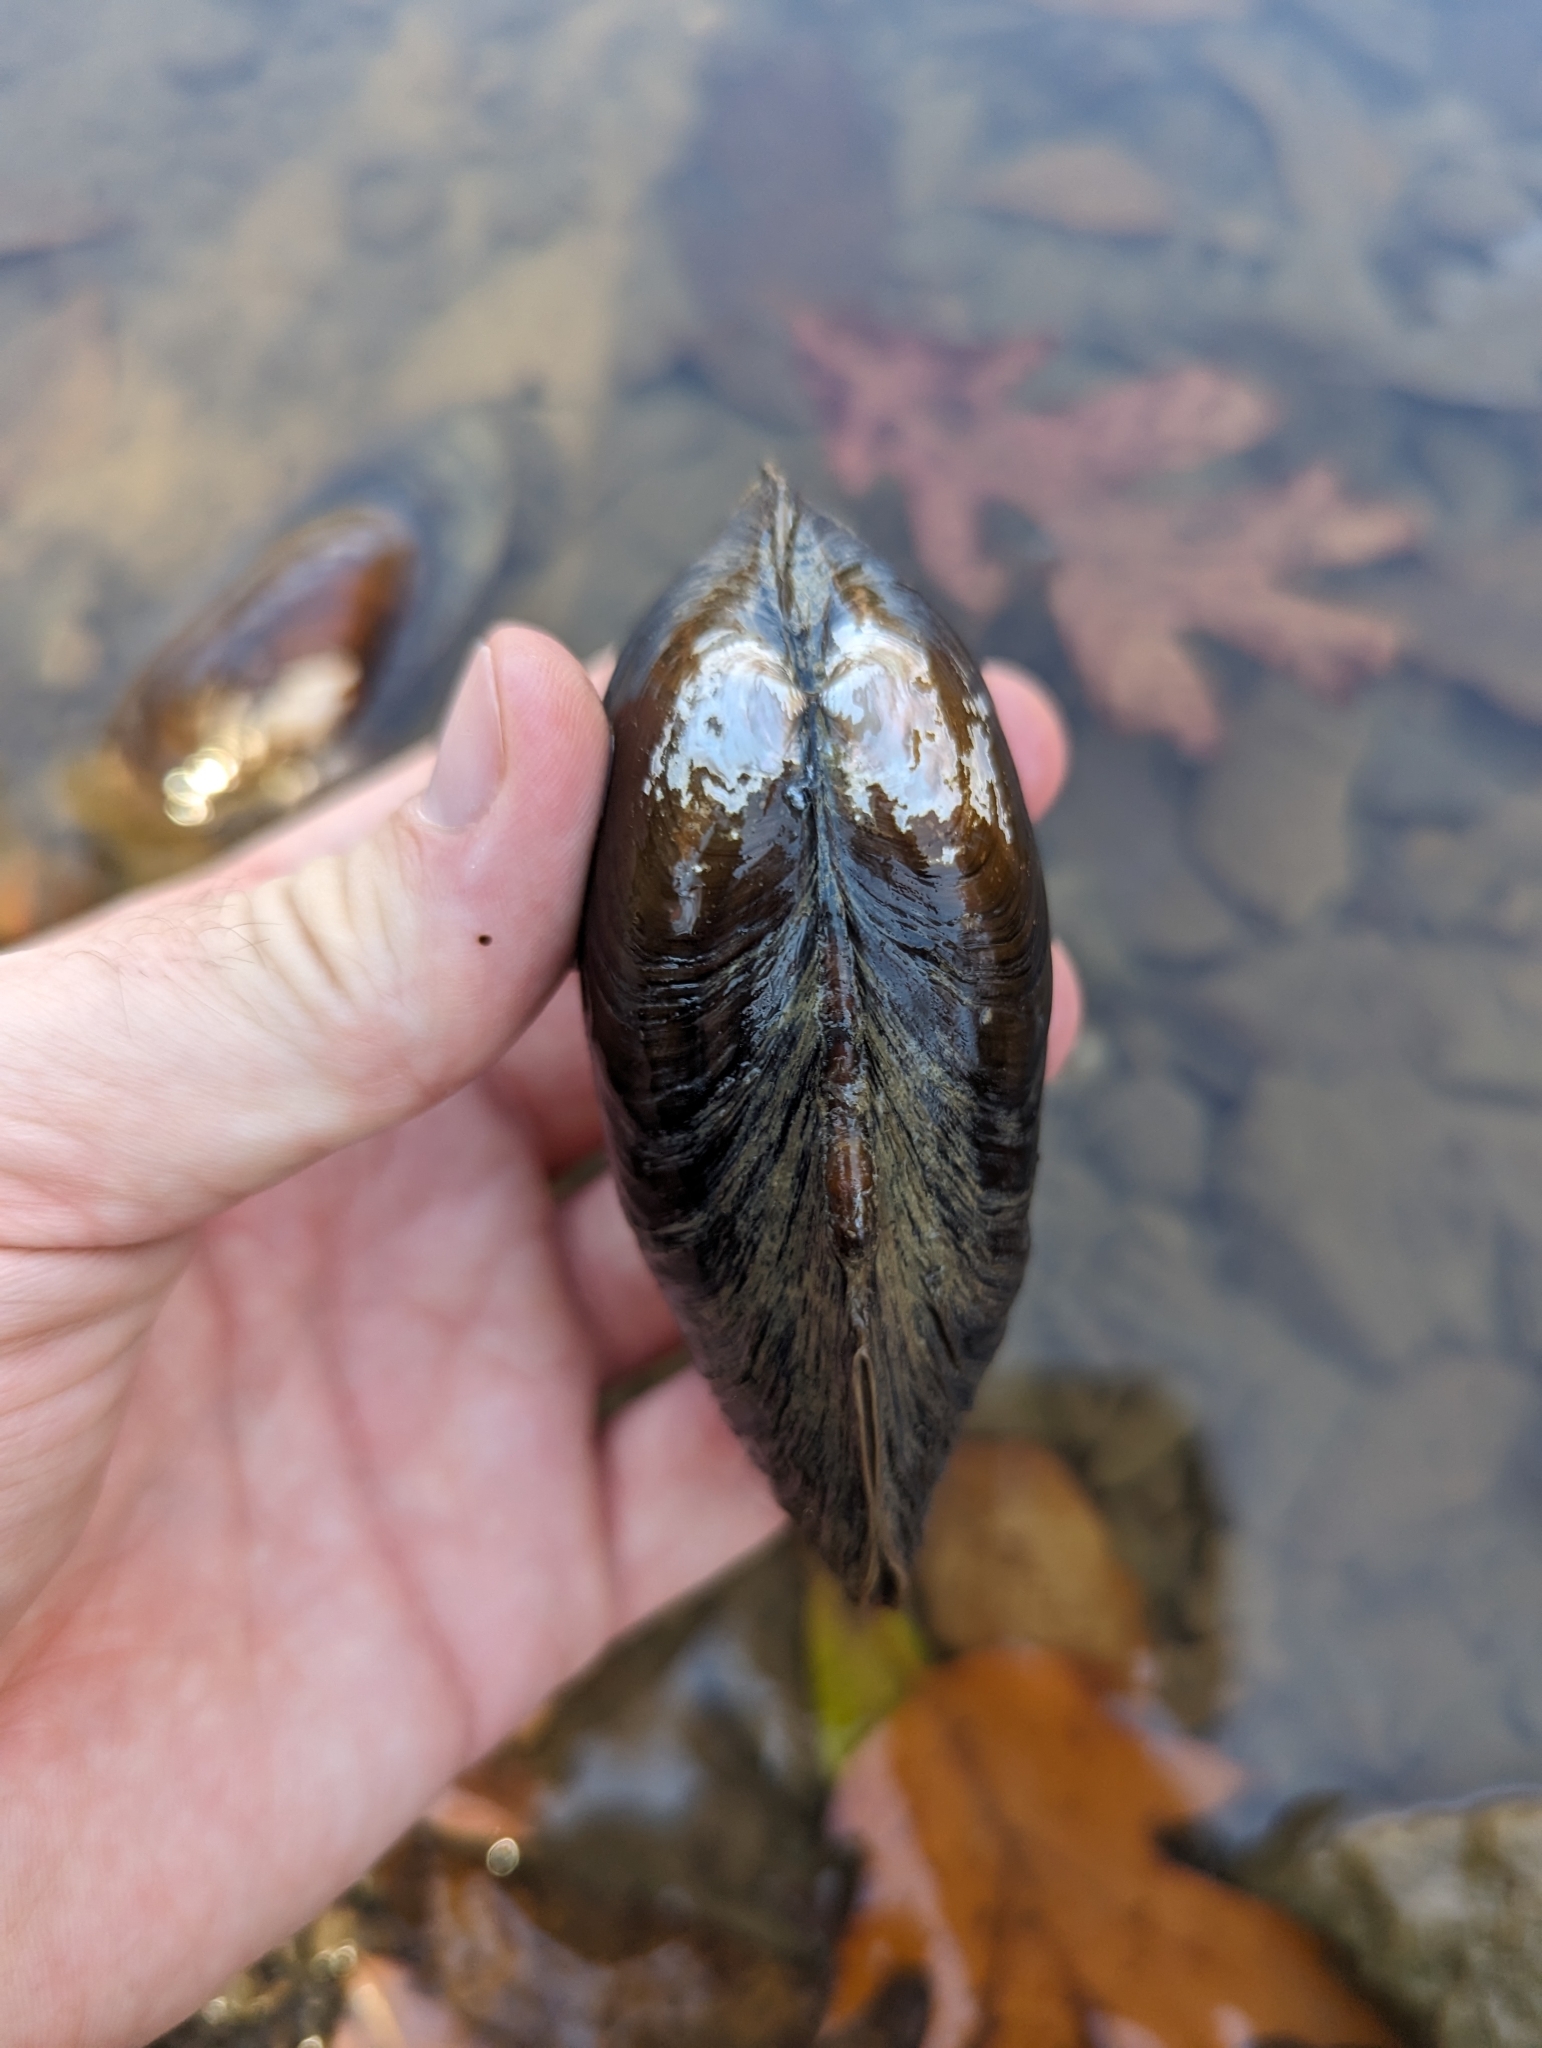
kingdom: Animalia
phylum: Mollusca
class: Bivalvia
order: Unionida
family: Unionidae
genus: Pyganodon
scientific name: Pyganodon cataracta
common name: Eastern floater
